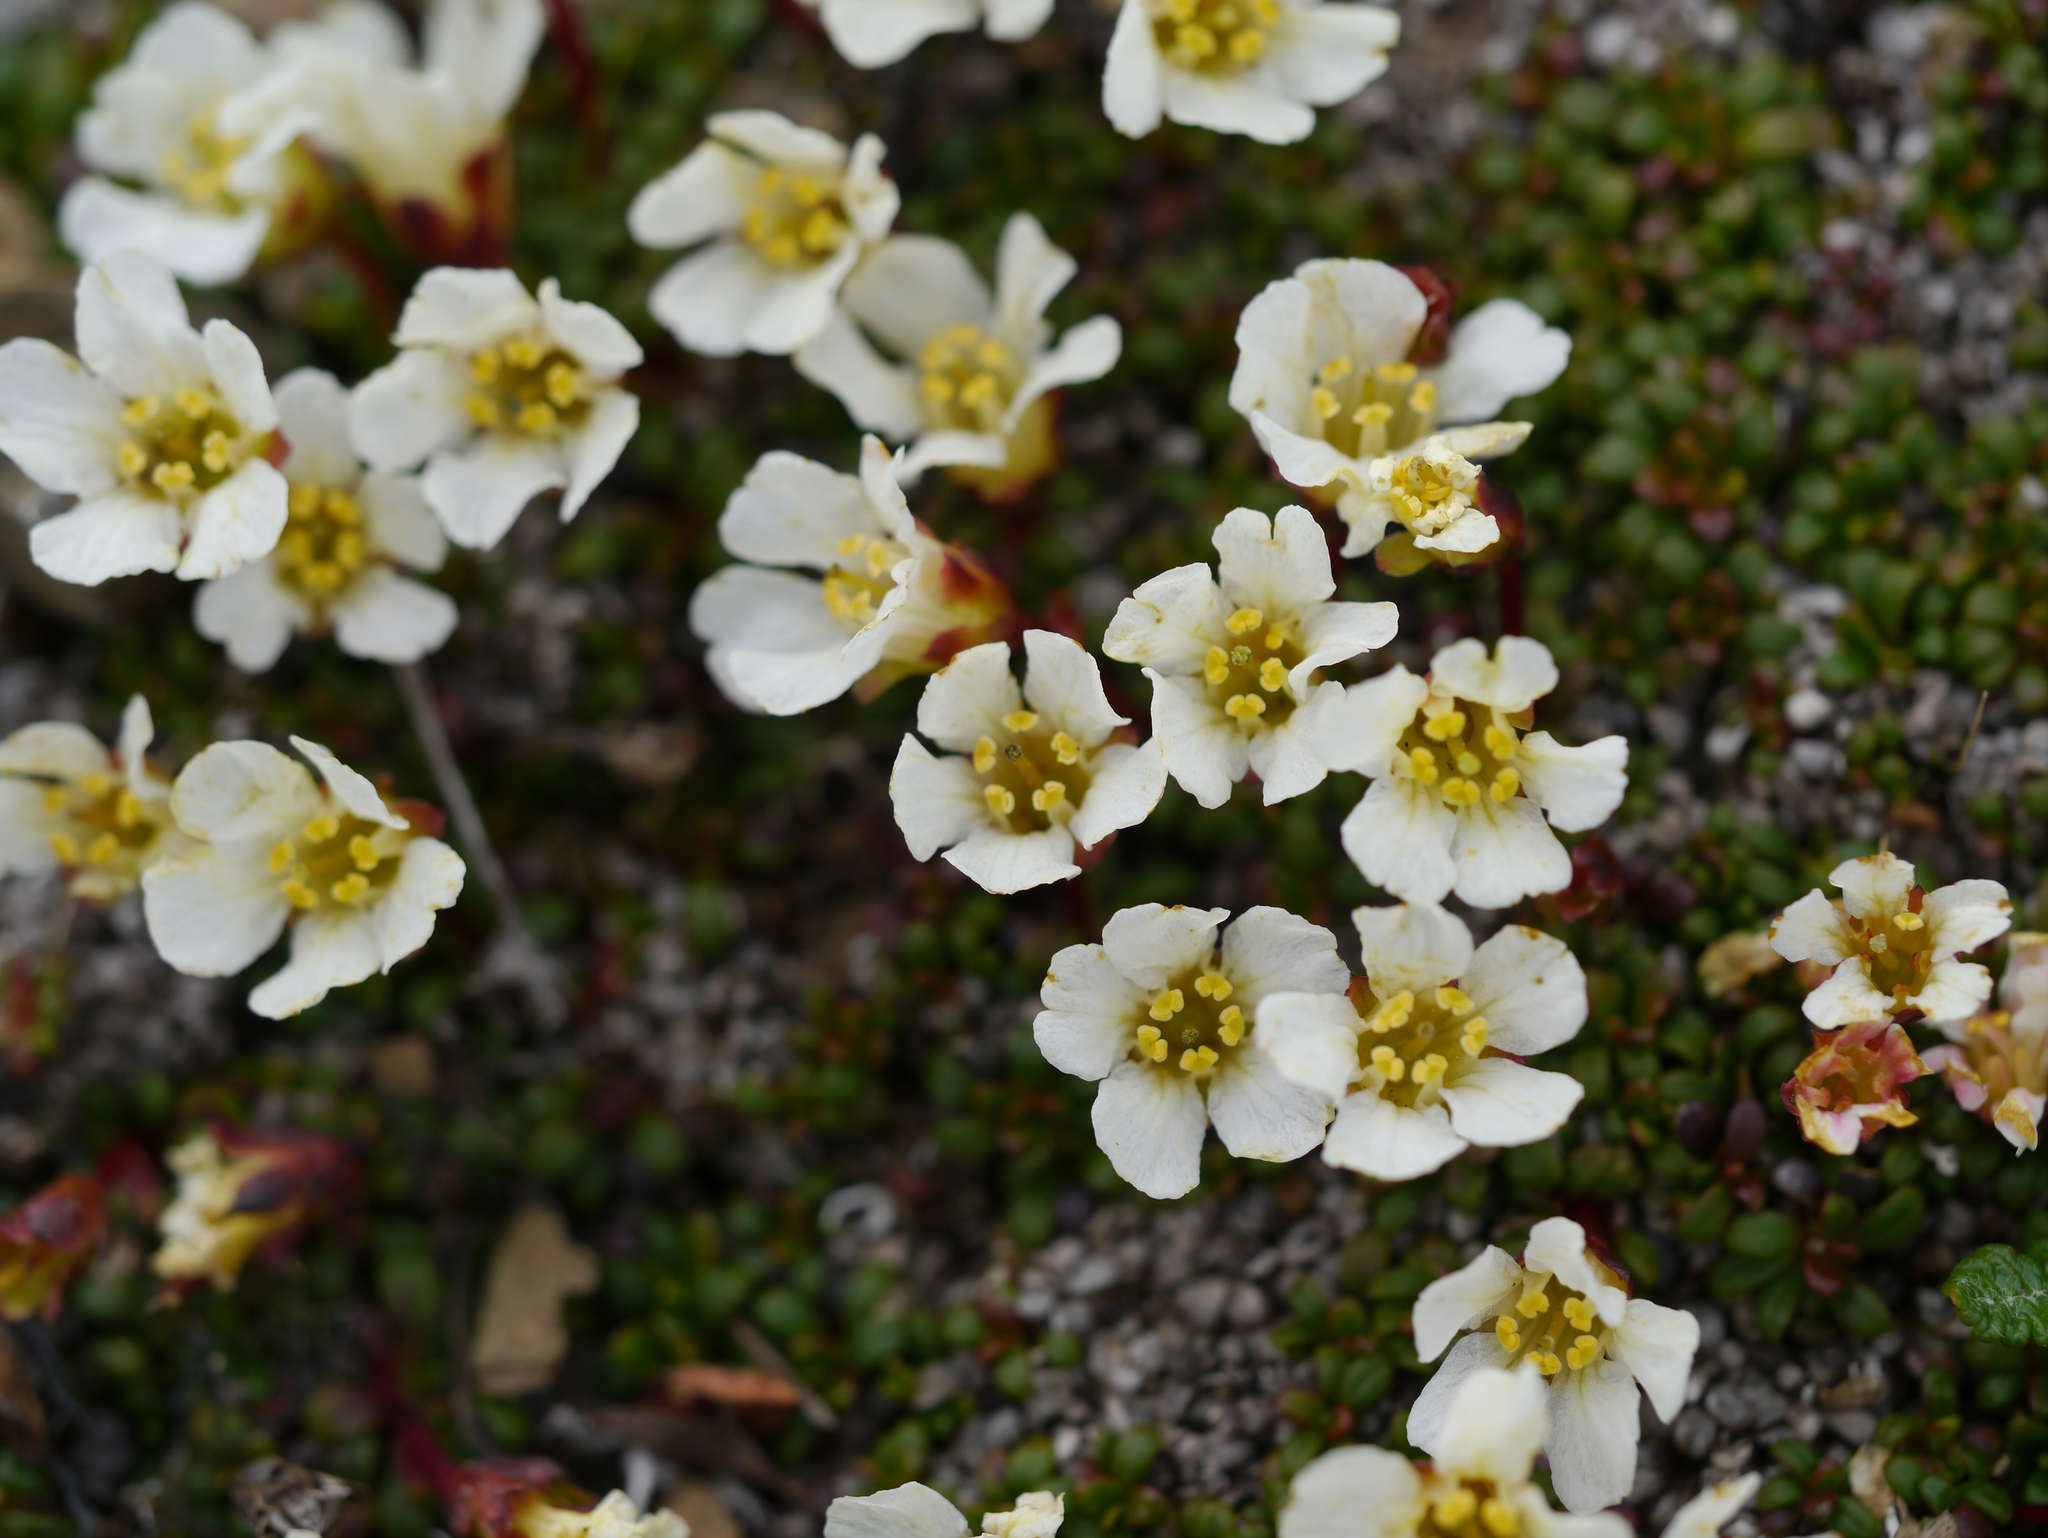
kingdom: Plantae
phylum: Tracheophyta
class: Magnoliopsida
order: Ericales
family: Diapensiaceae
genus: Diapensia
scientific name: Diapensia obovata
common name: Alaska diapensia
